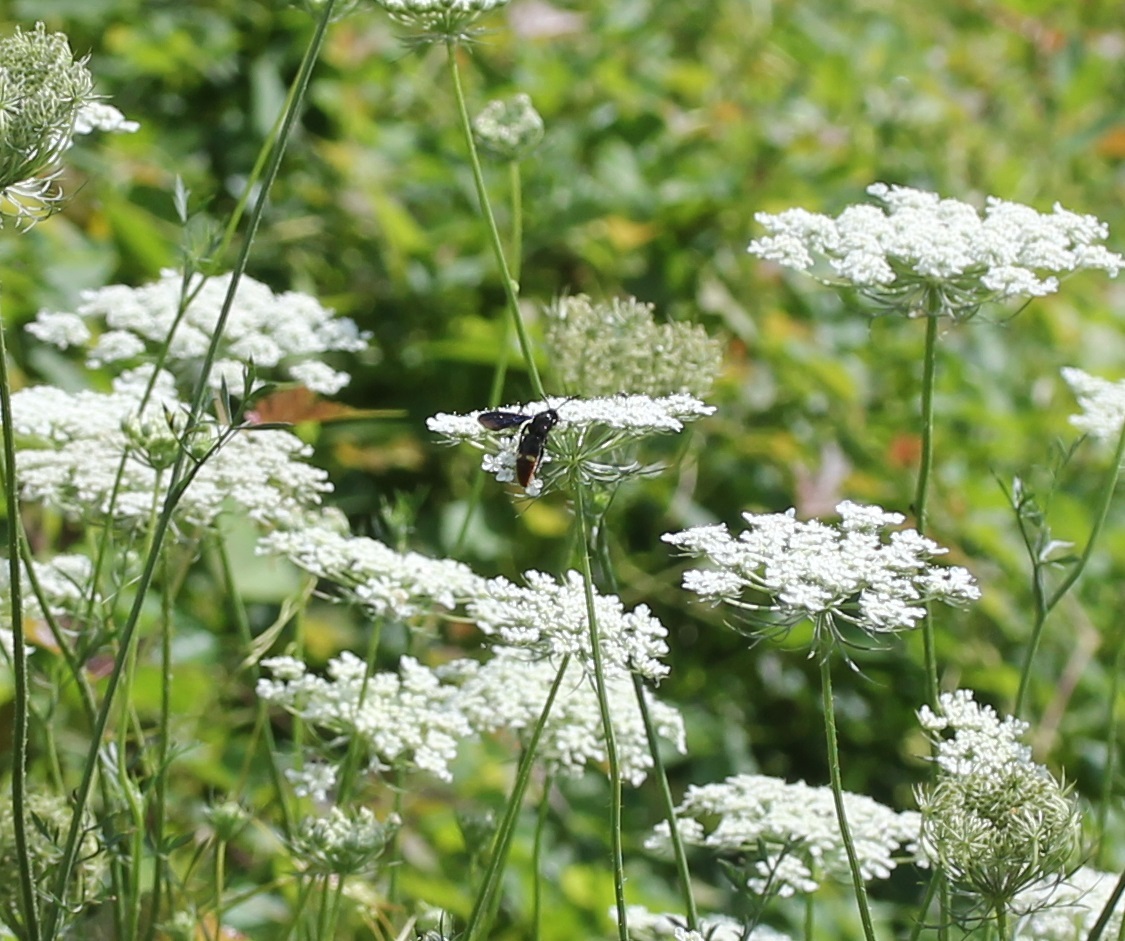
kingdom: Animalia
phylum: Arthropoda
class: Insecta
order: Hymenoptera
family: Scoliidae
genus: Scolia
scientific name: Scolia dubia
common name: Blue-winged scoliid wasp
